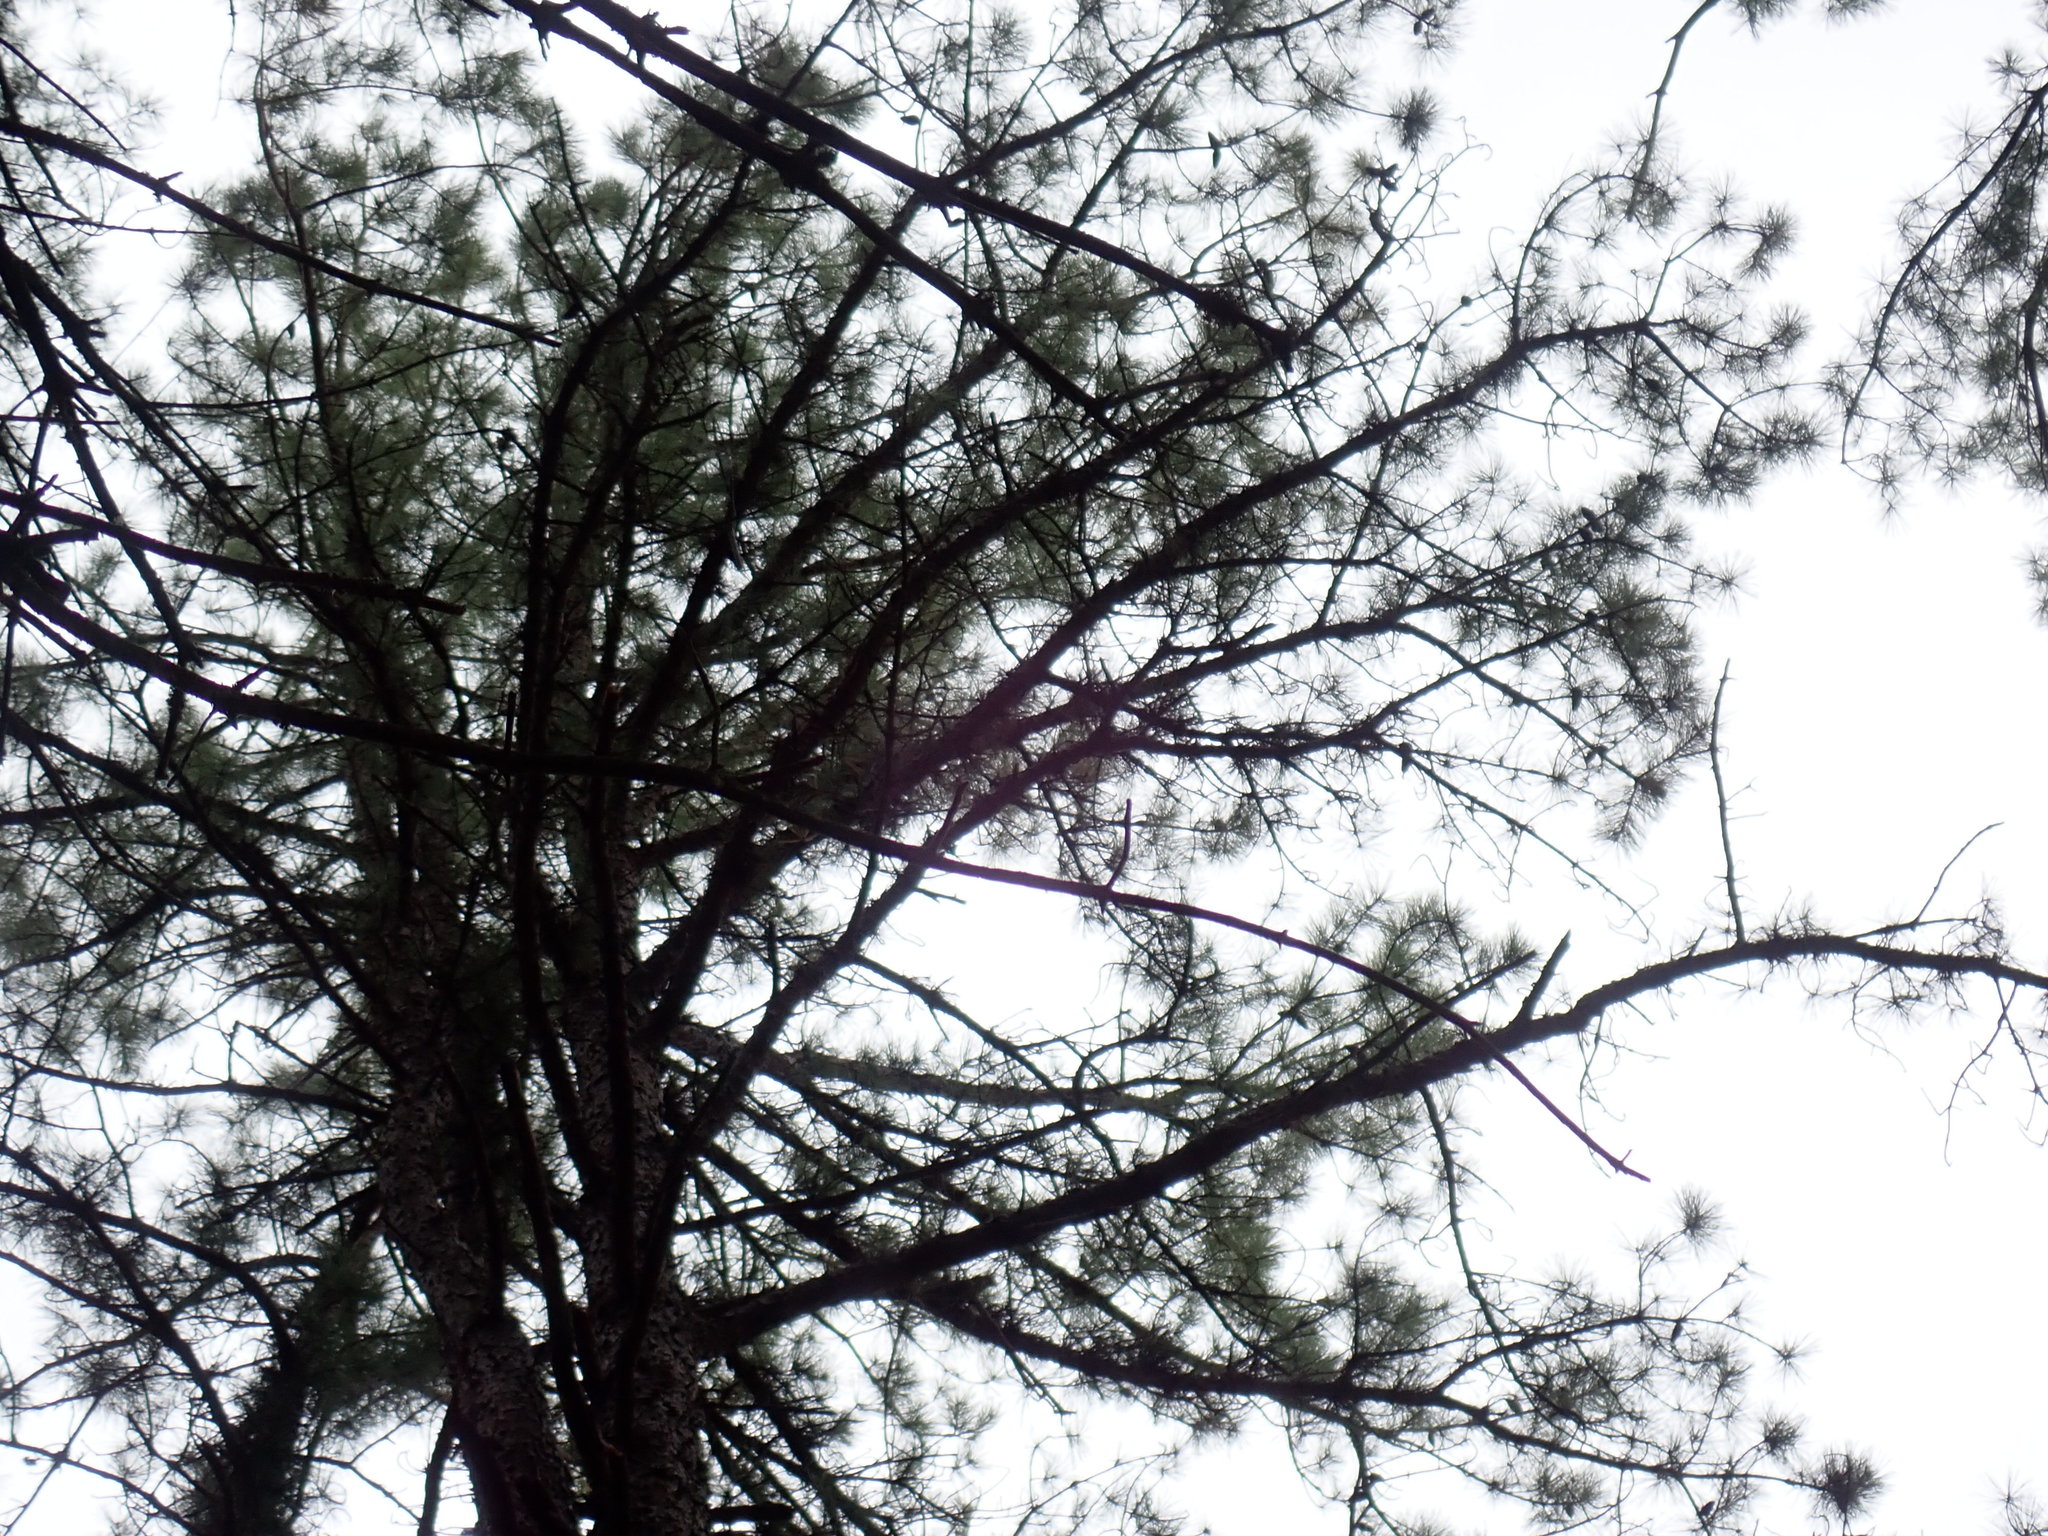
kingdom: Plantae
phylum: Tracheophyta
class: Pinopsida
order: Pinales
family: Pinaceae
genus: Pinus
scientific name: Pinus rigida
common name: Pitch pine
